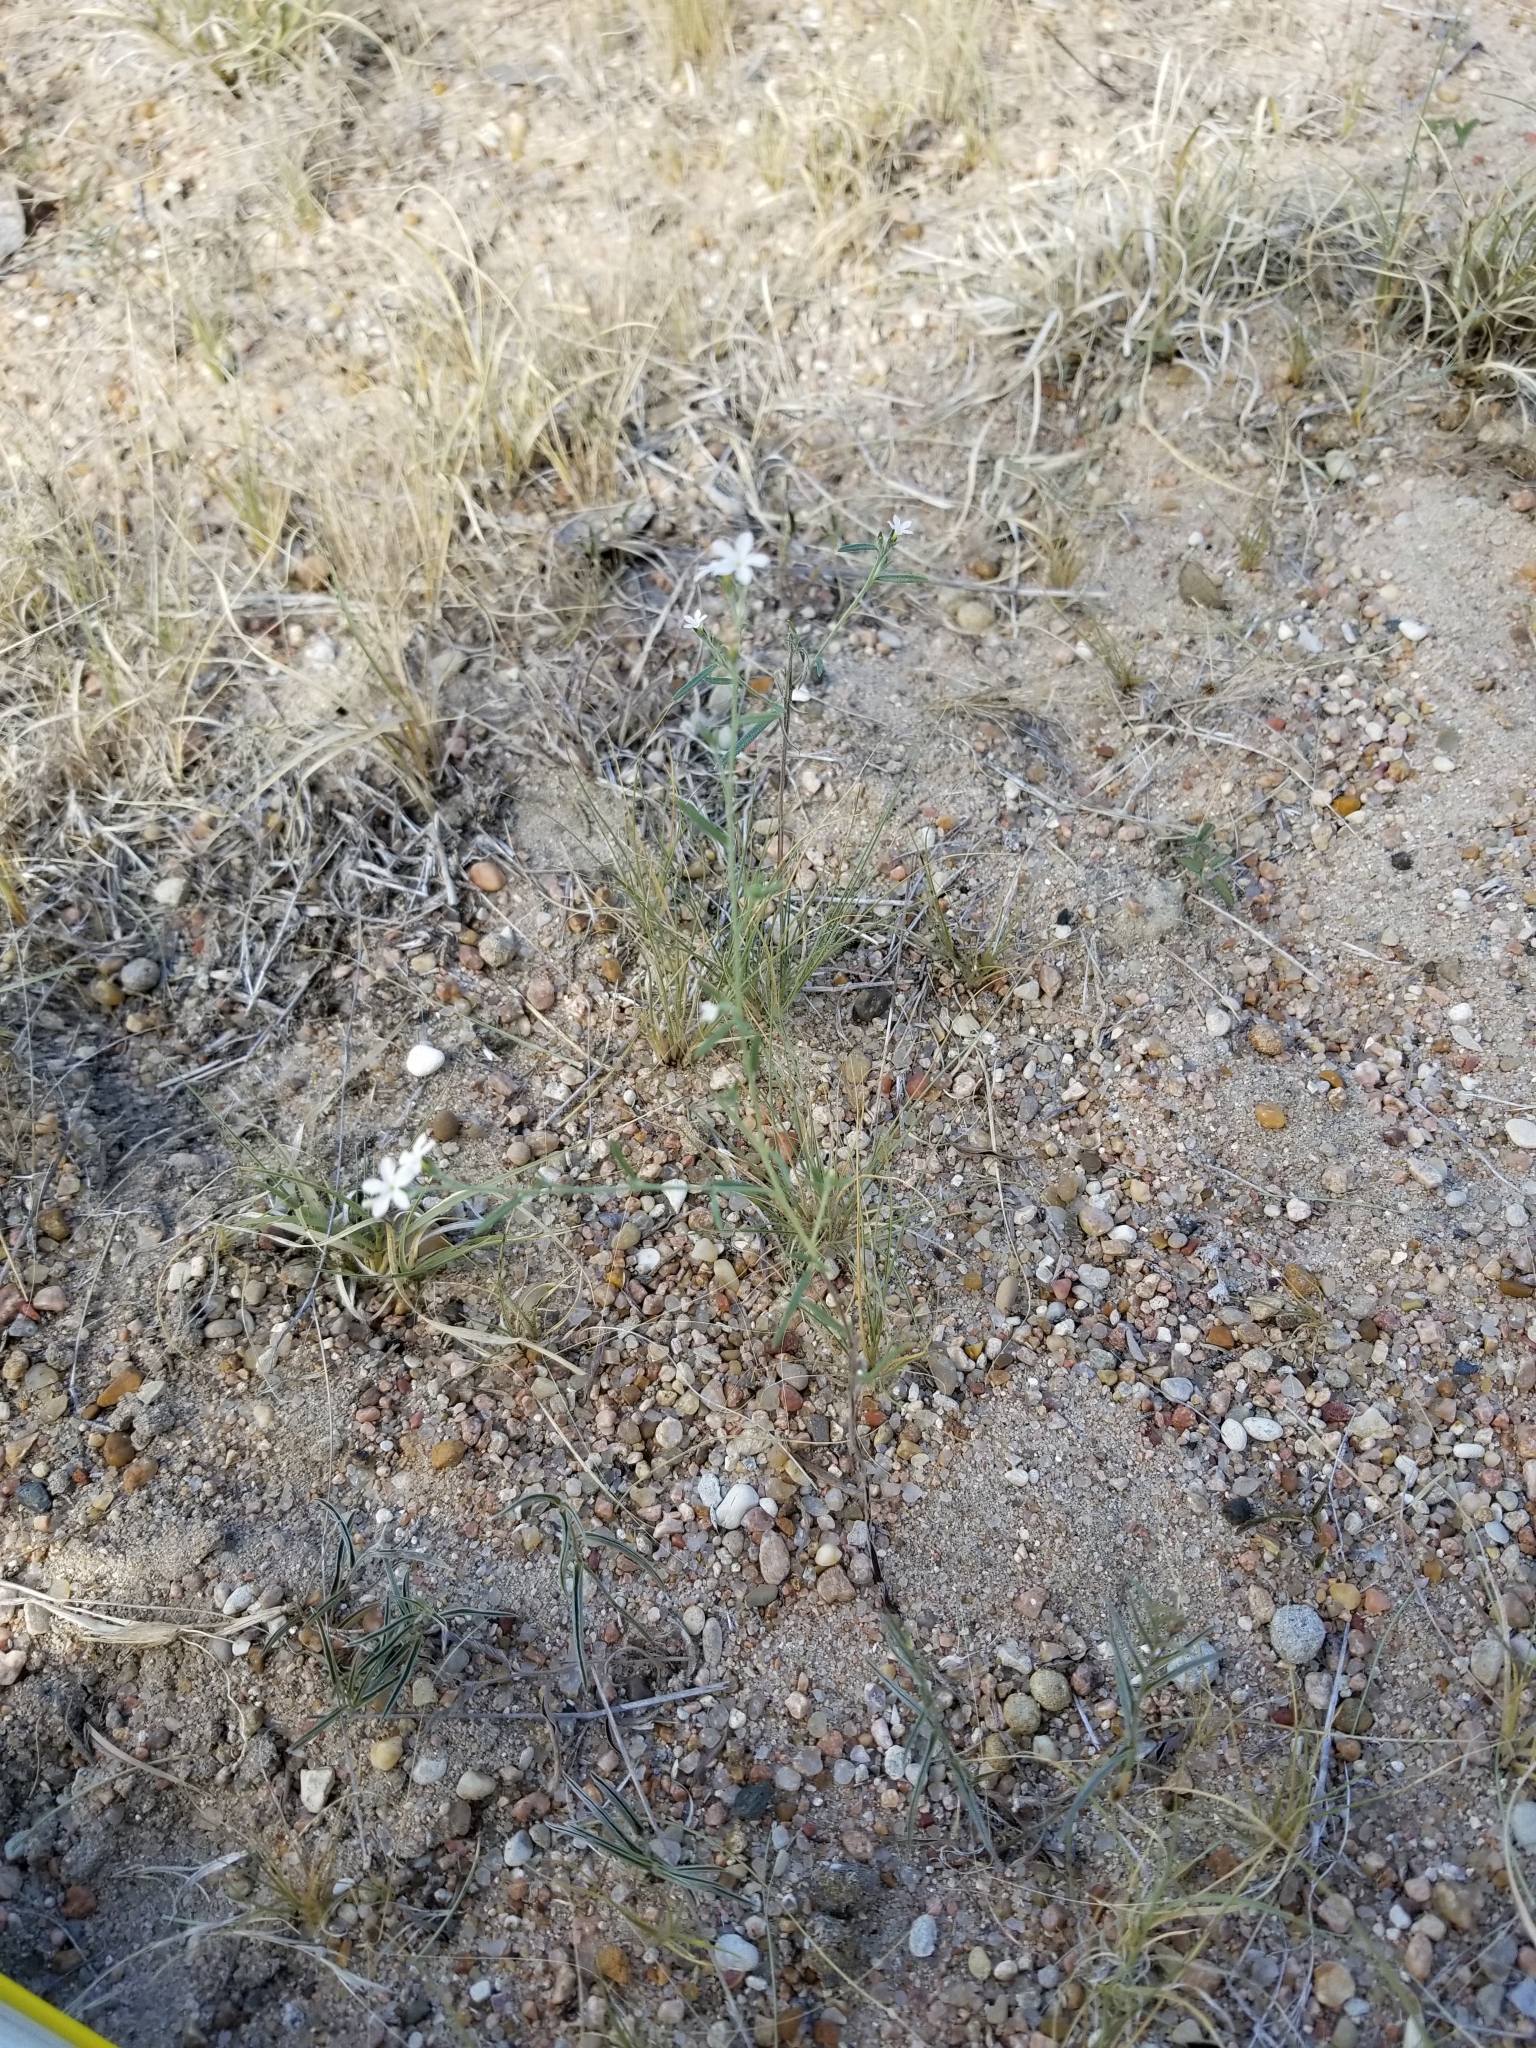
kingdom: Plantae
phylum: Tracheophyta
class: Magnoliopsida
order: Boraginales
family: Heliotropiaceae
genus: Euploca
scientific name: Euploca tenella
